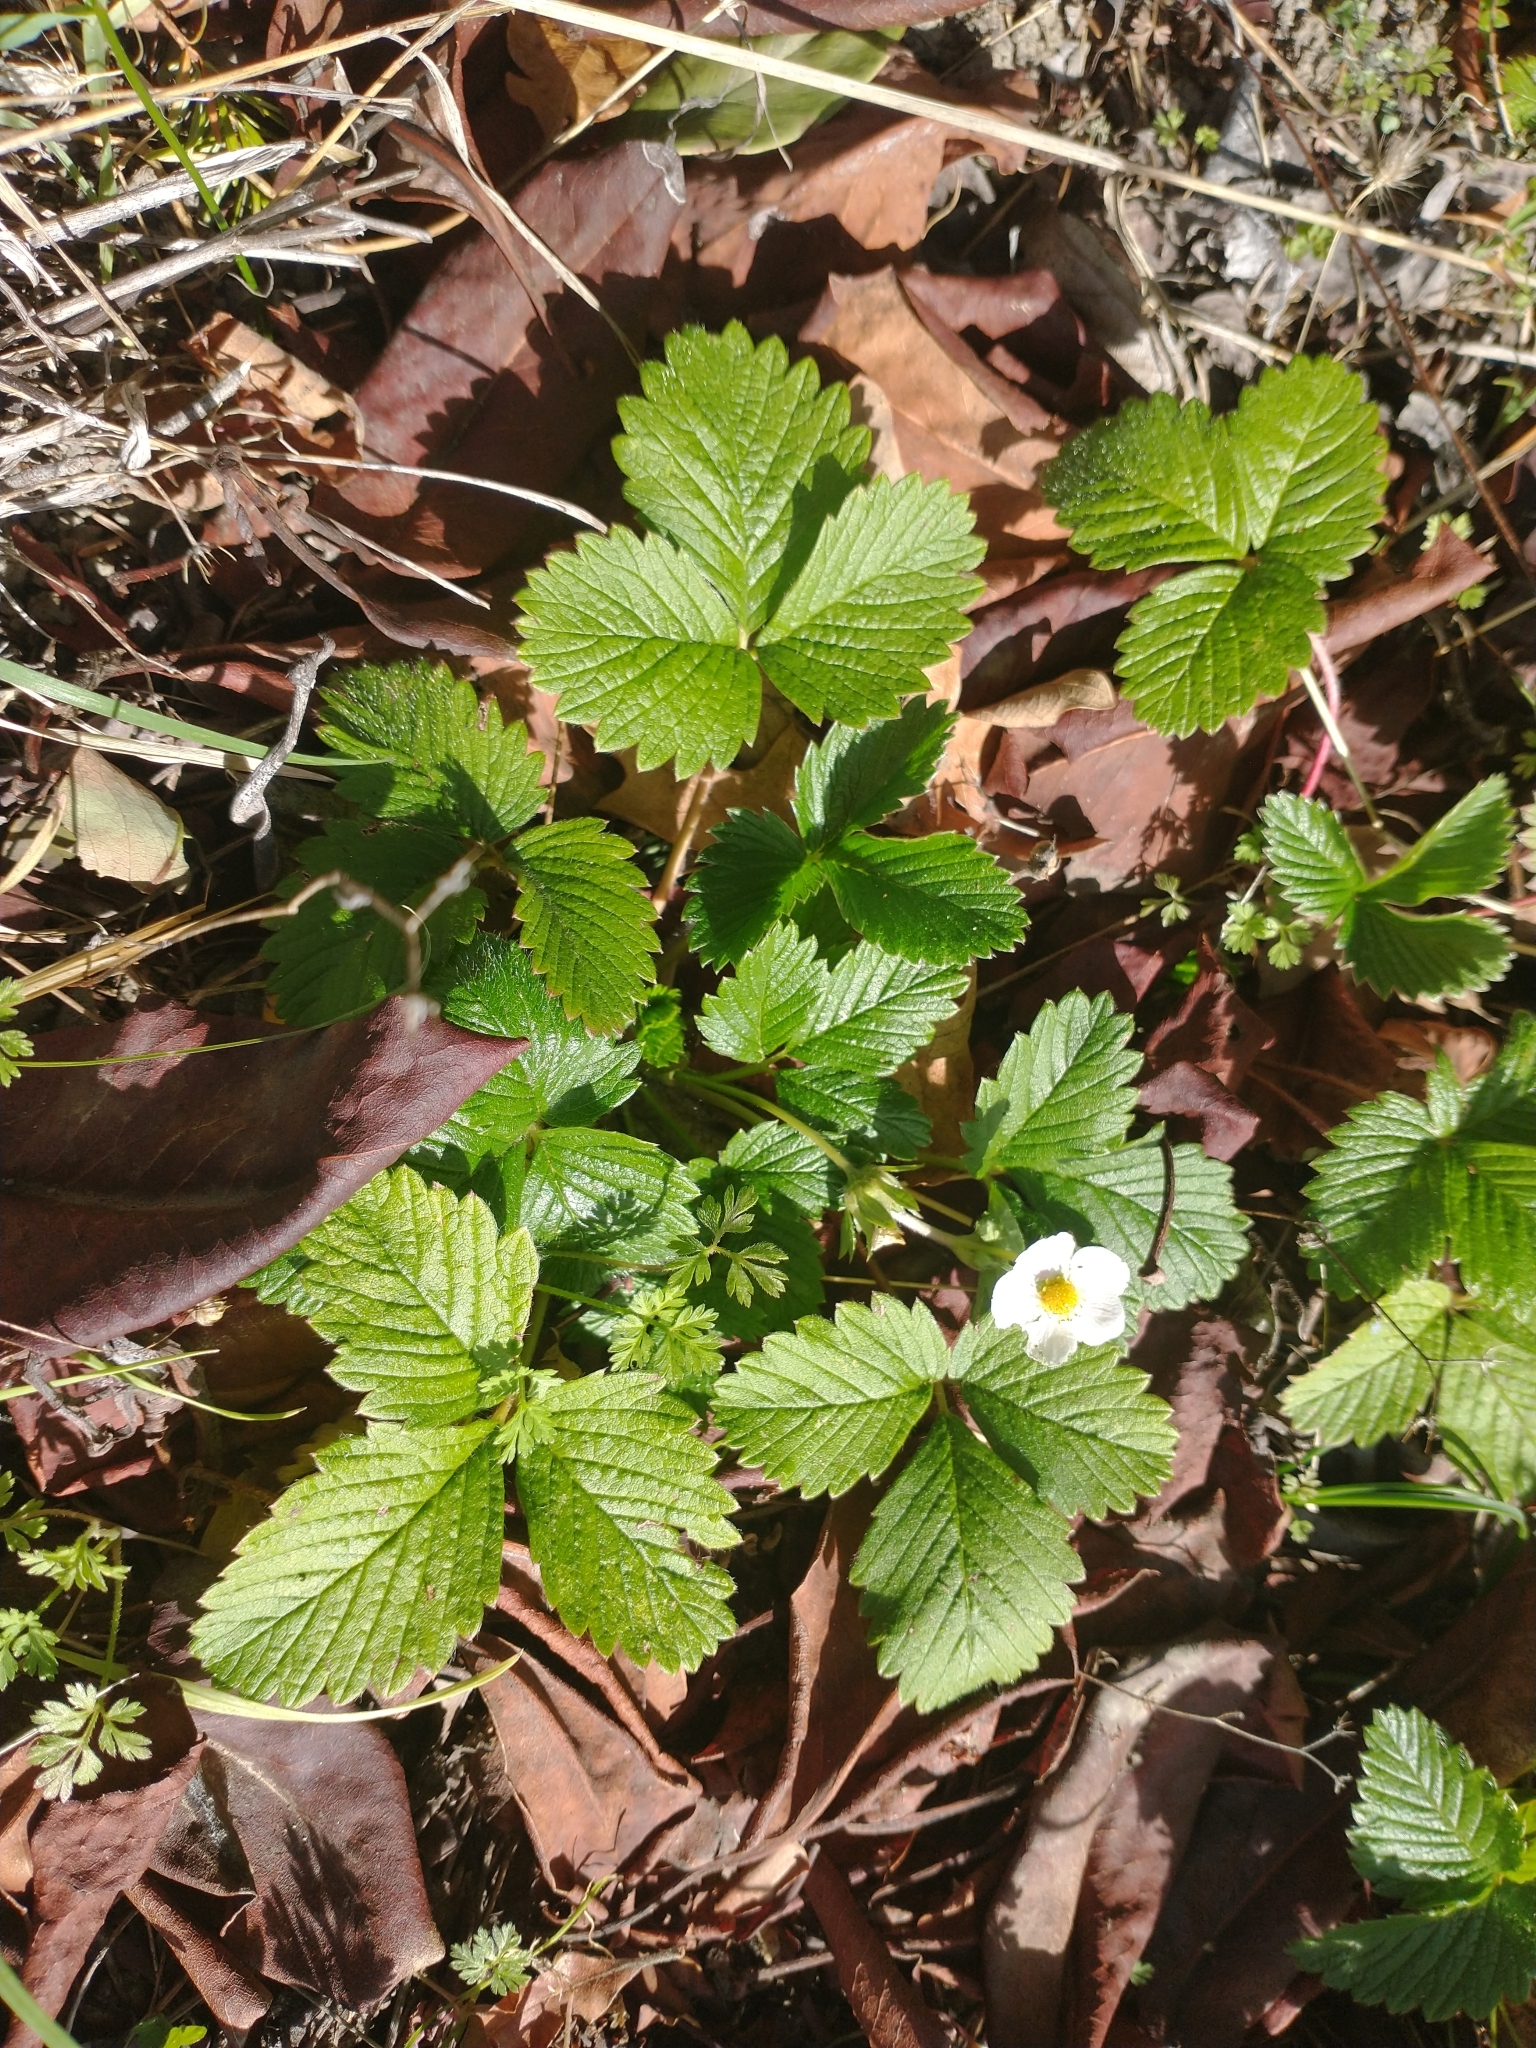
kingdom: Plantae
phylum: Tracheophyta
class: Magnoliopsida
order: Rosales
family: Rosaceae
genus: Fragaria
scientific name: Fragaria vesca
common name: Wild strawberry
